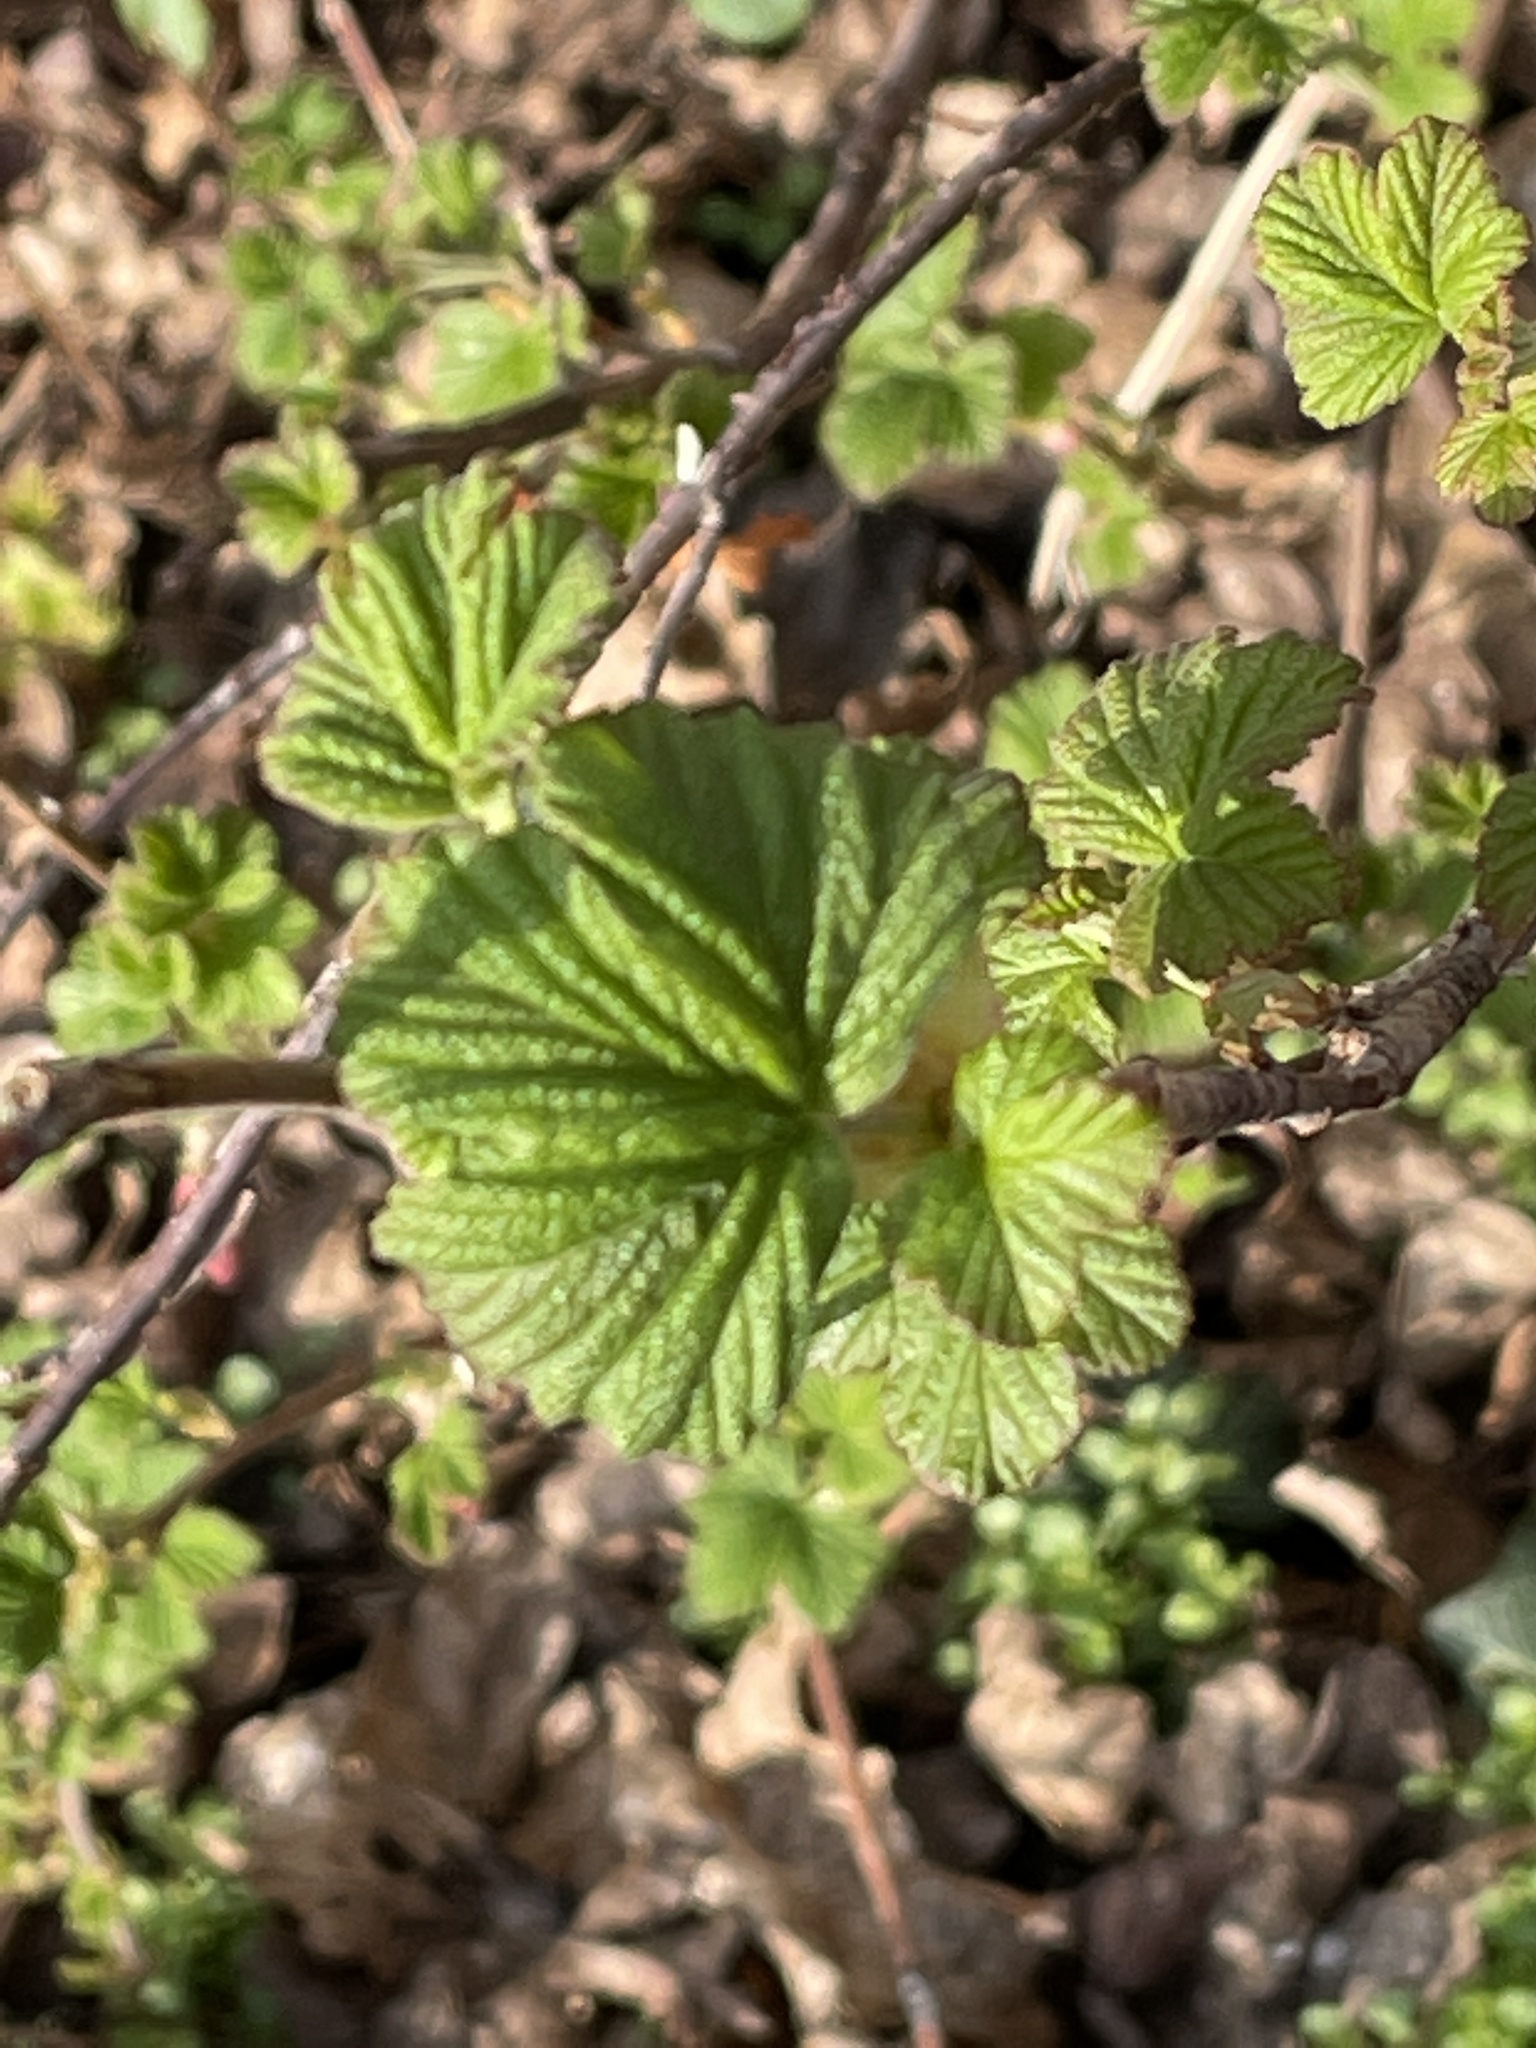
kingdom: Plantae
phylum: Tracheophyta
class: Magnoliopsida
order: Saxifragales
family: Grossulariaceae
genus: Ribes
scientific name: Ribes sanguineum
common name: Flowering currant
